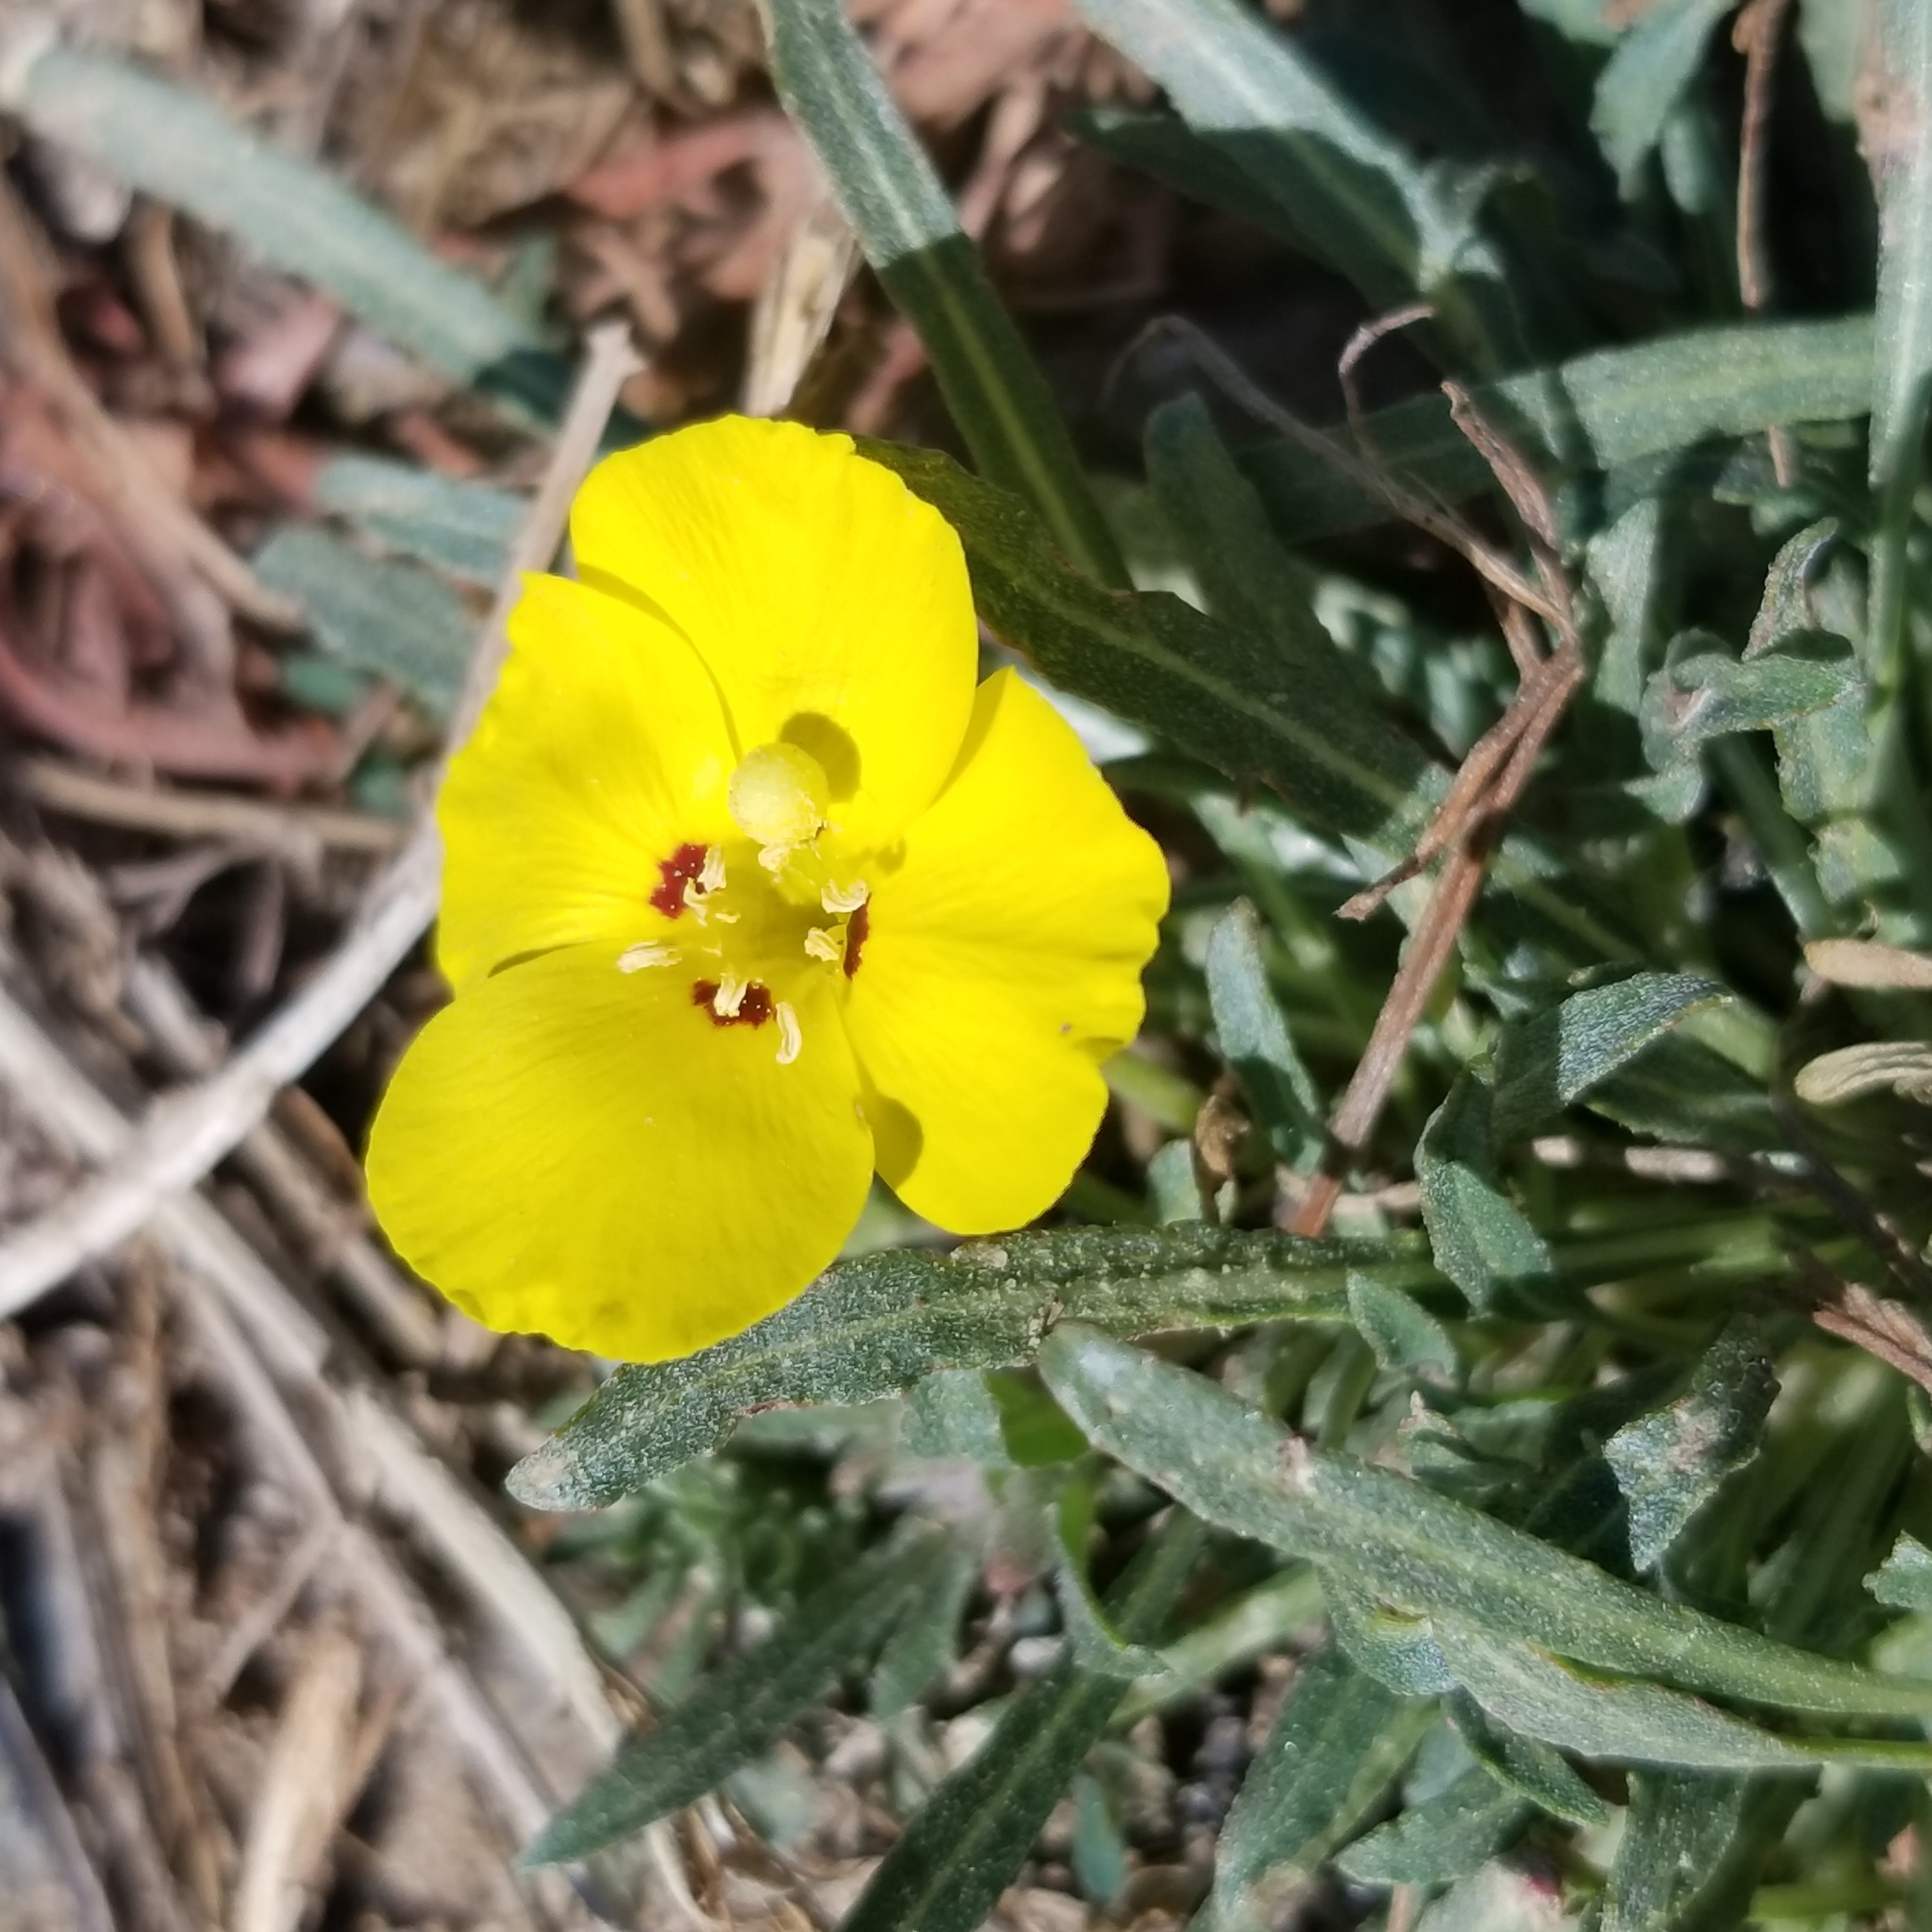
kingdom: Plantae
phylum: Tracheophyta
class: Magnoliopsida
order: Myrtales
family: Onagraceae
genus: Camissoniopsis
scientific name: Camissoniopsis bistorta
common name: Southern suncup
